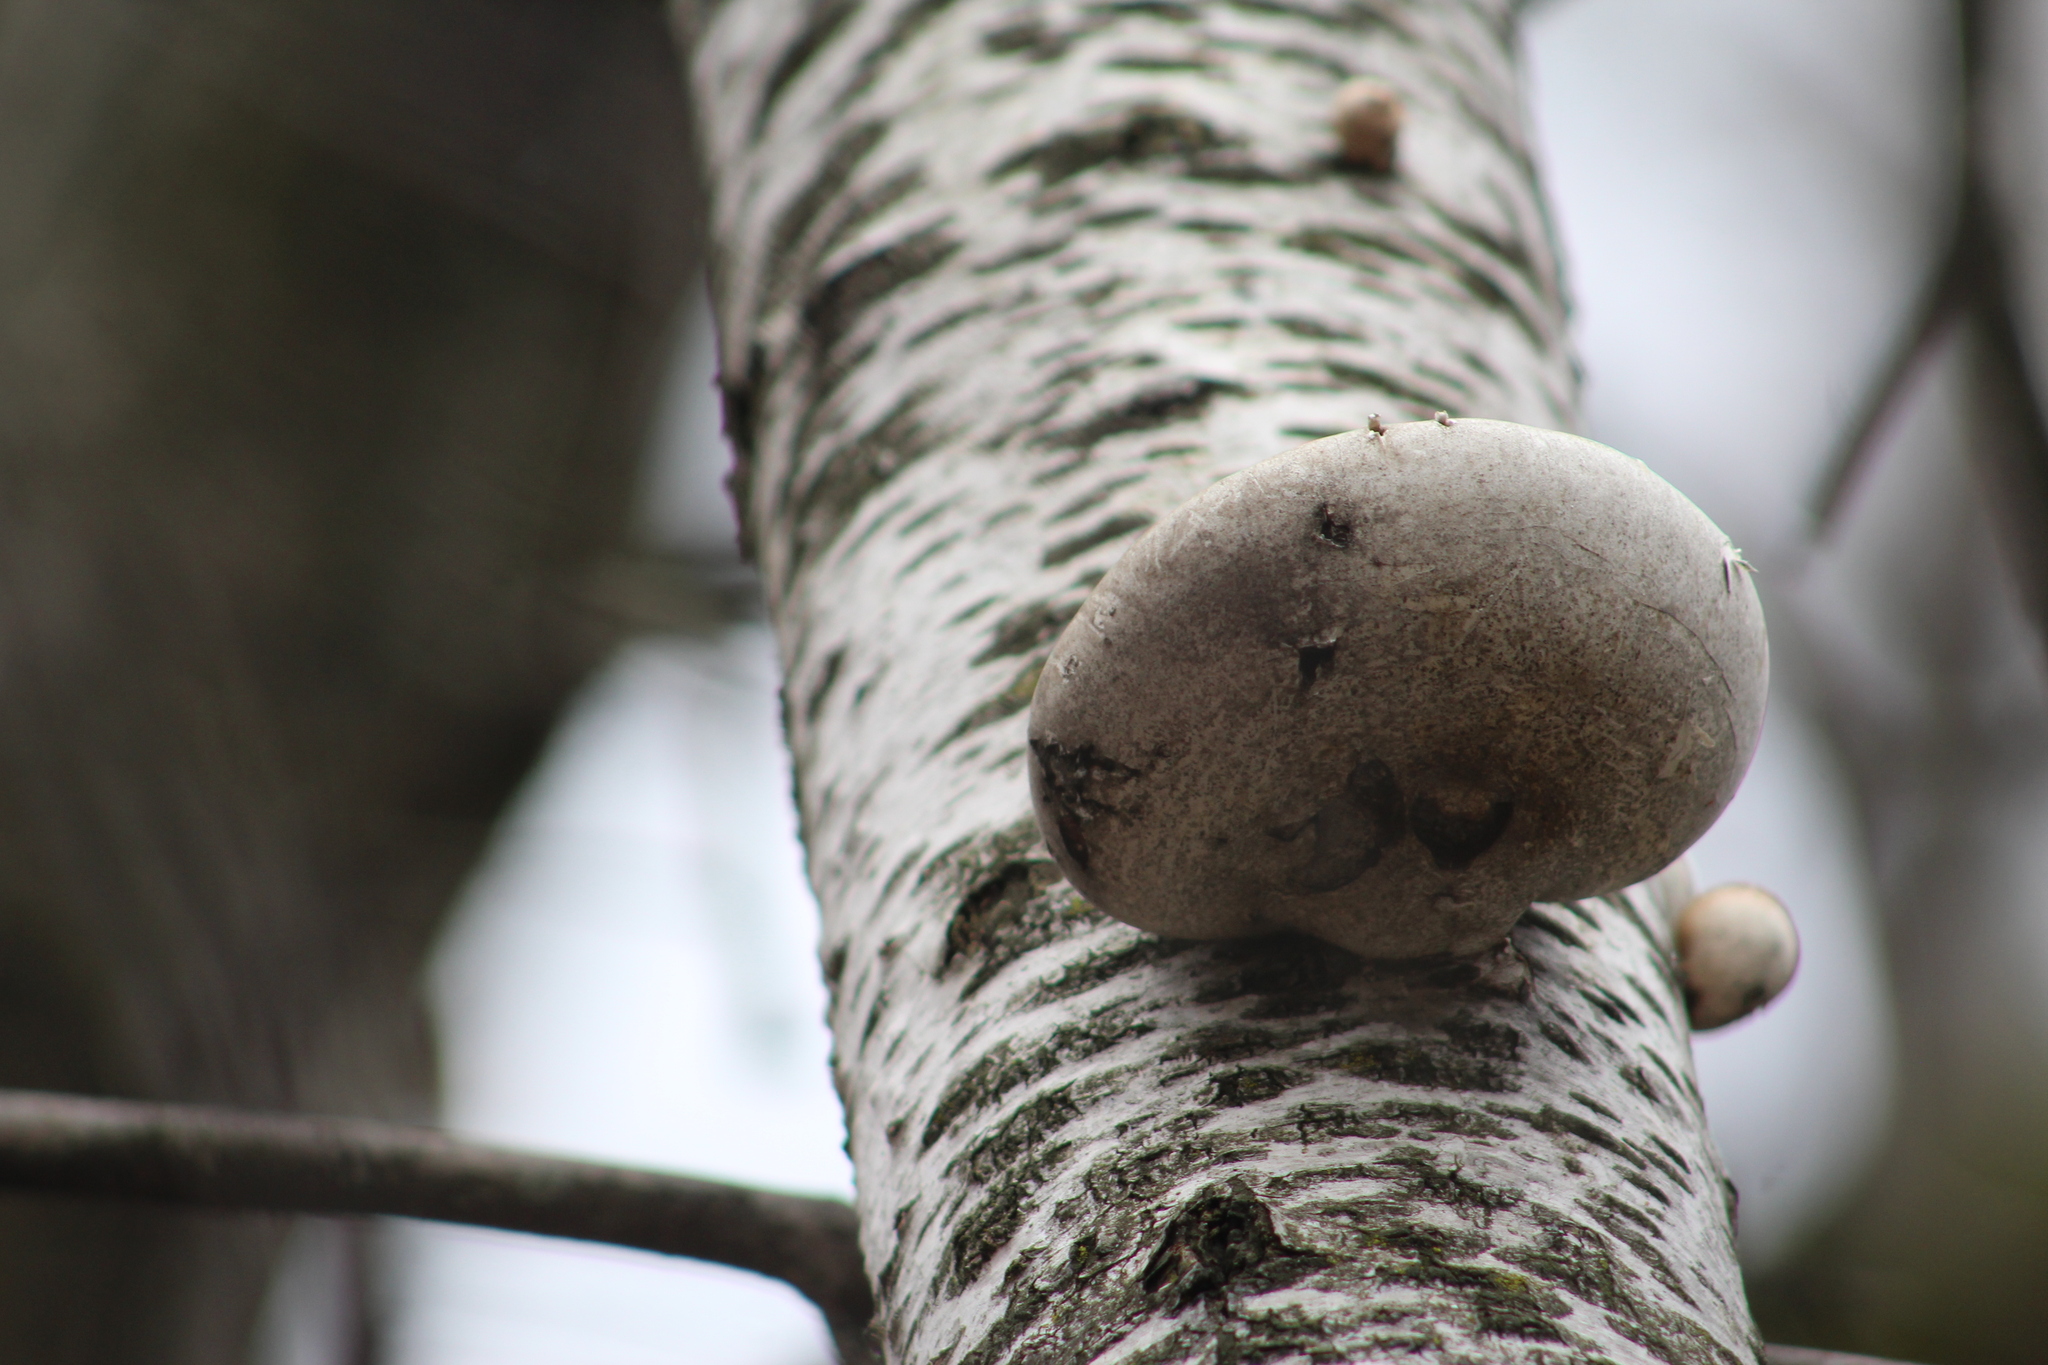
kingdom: Fungi
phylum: Basidiomycota
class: Agaricomycetes
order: Polyporales
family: Fomitopsidaceae
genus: Fomitopsis
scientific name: Fomitopsis betulina
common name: Birch polypore
